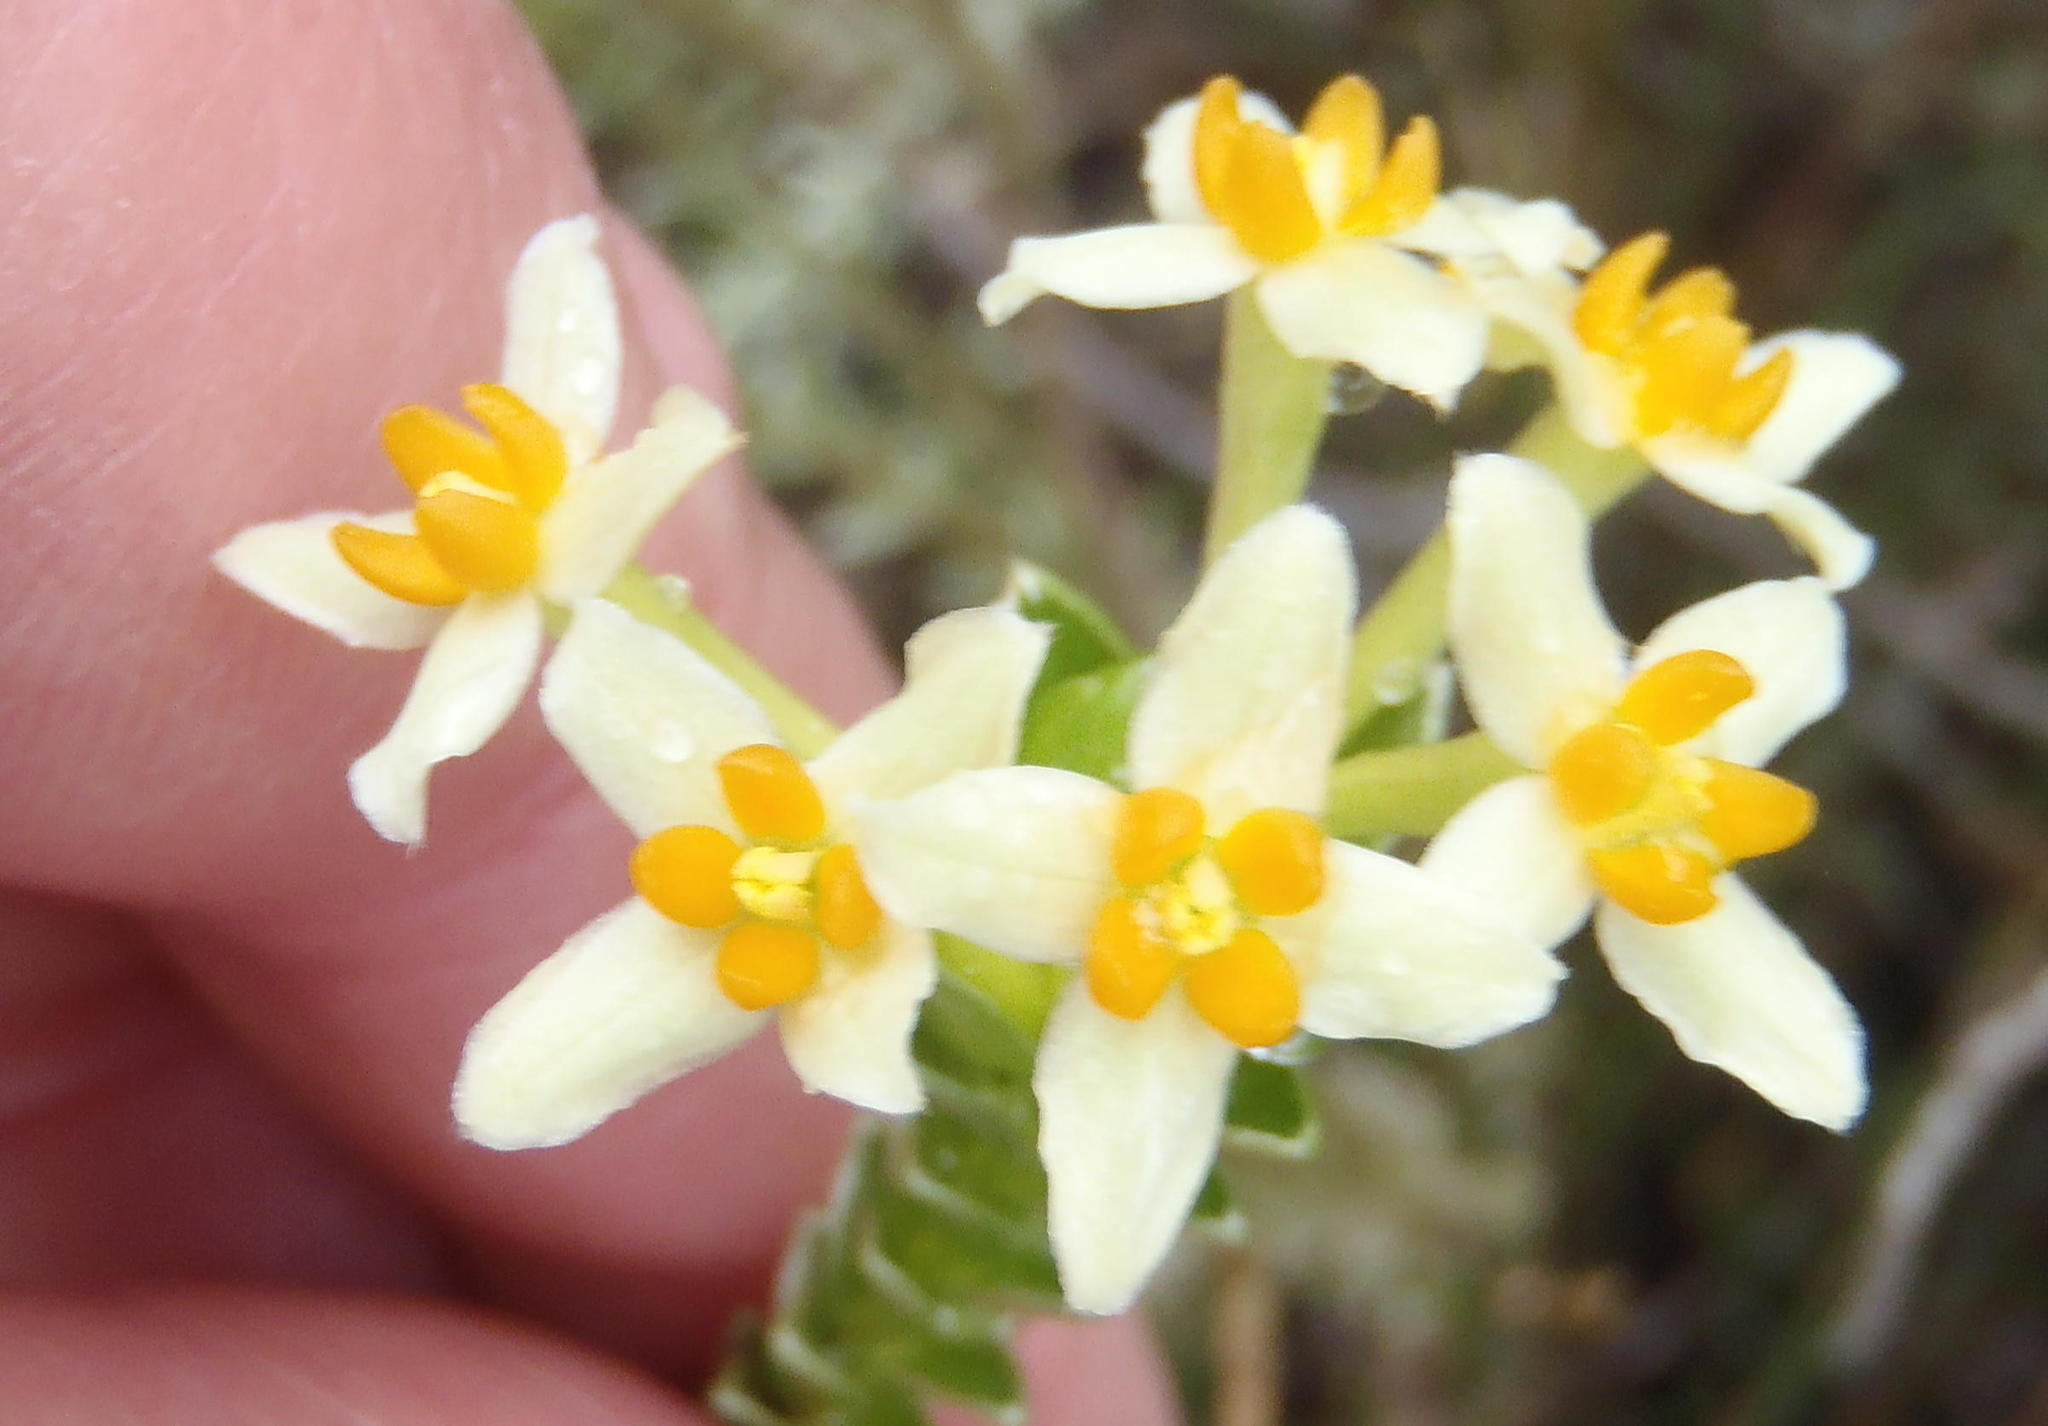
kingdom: Plantae
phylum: Tracheophyta
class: Magnoliopsida
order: Malvales
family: Thymelaeaceae
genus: Gnidia
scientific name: Gnidia chrysophylla
